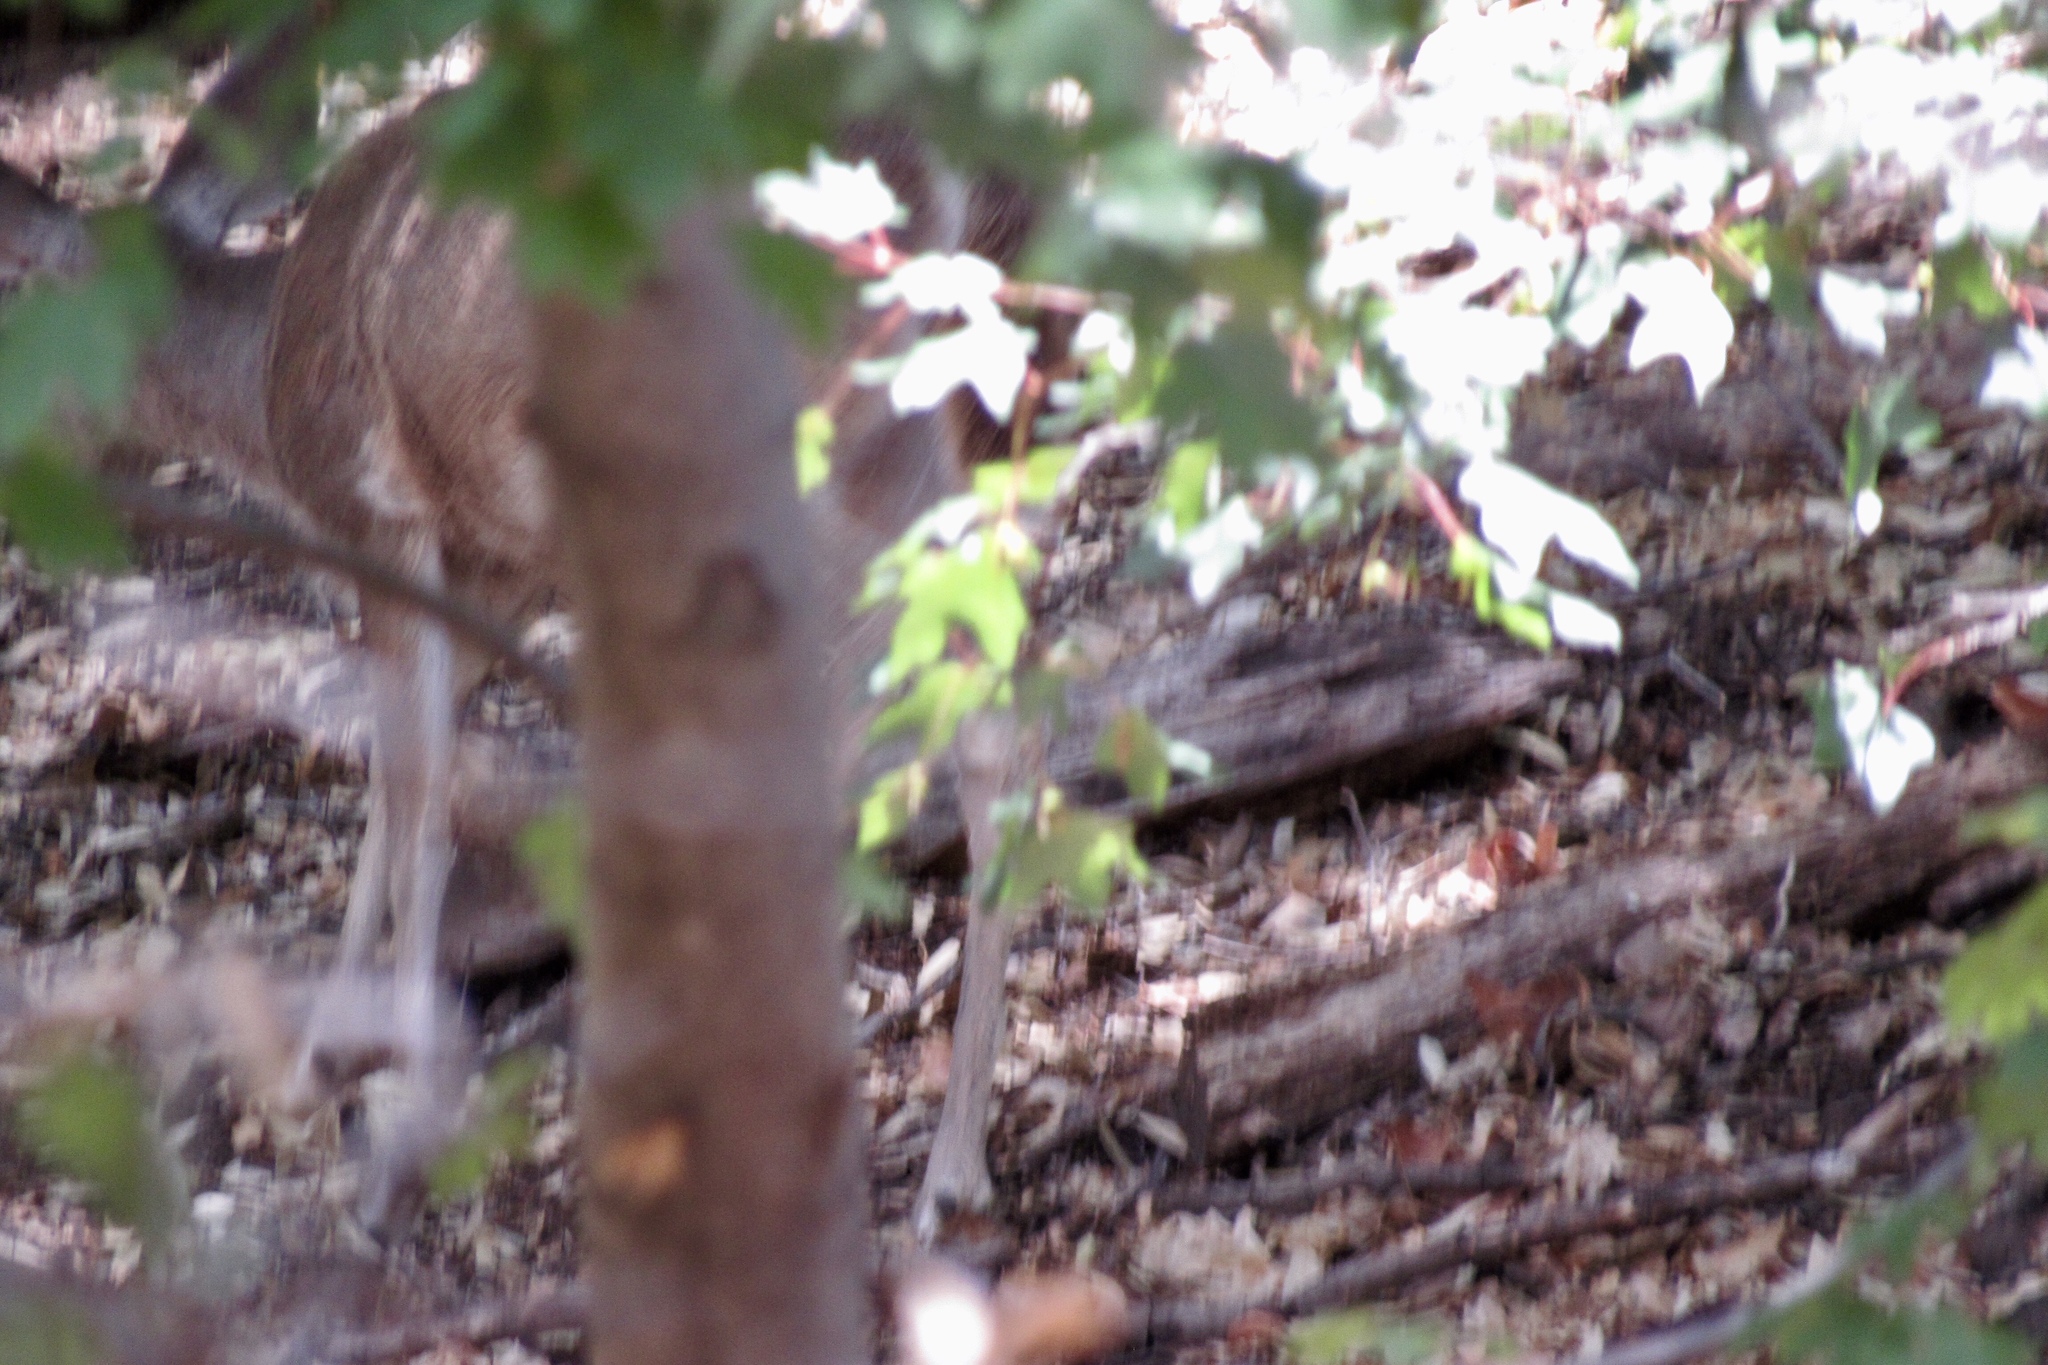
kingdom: Animalia
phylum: Chordata
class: Mammalia
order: Artiodactyla
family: Cervidae
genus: Odocoileus
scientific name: Odocoileus virginianus
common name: White-tailed deer
